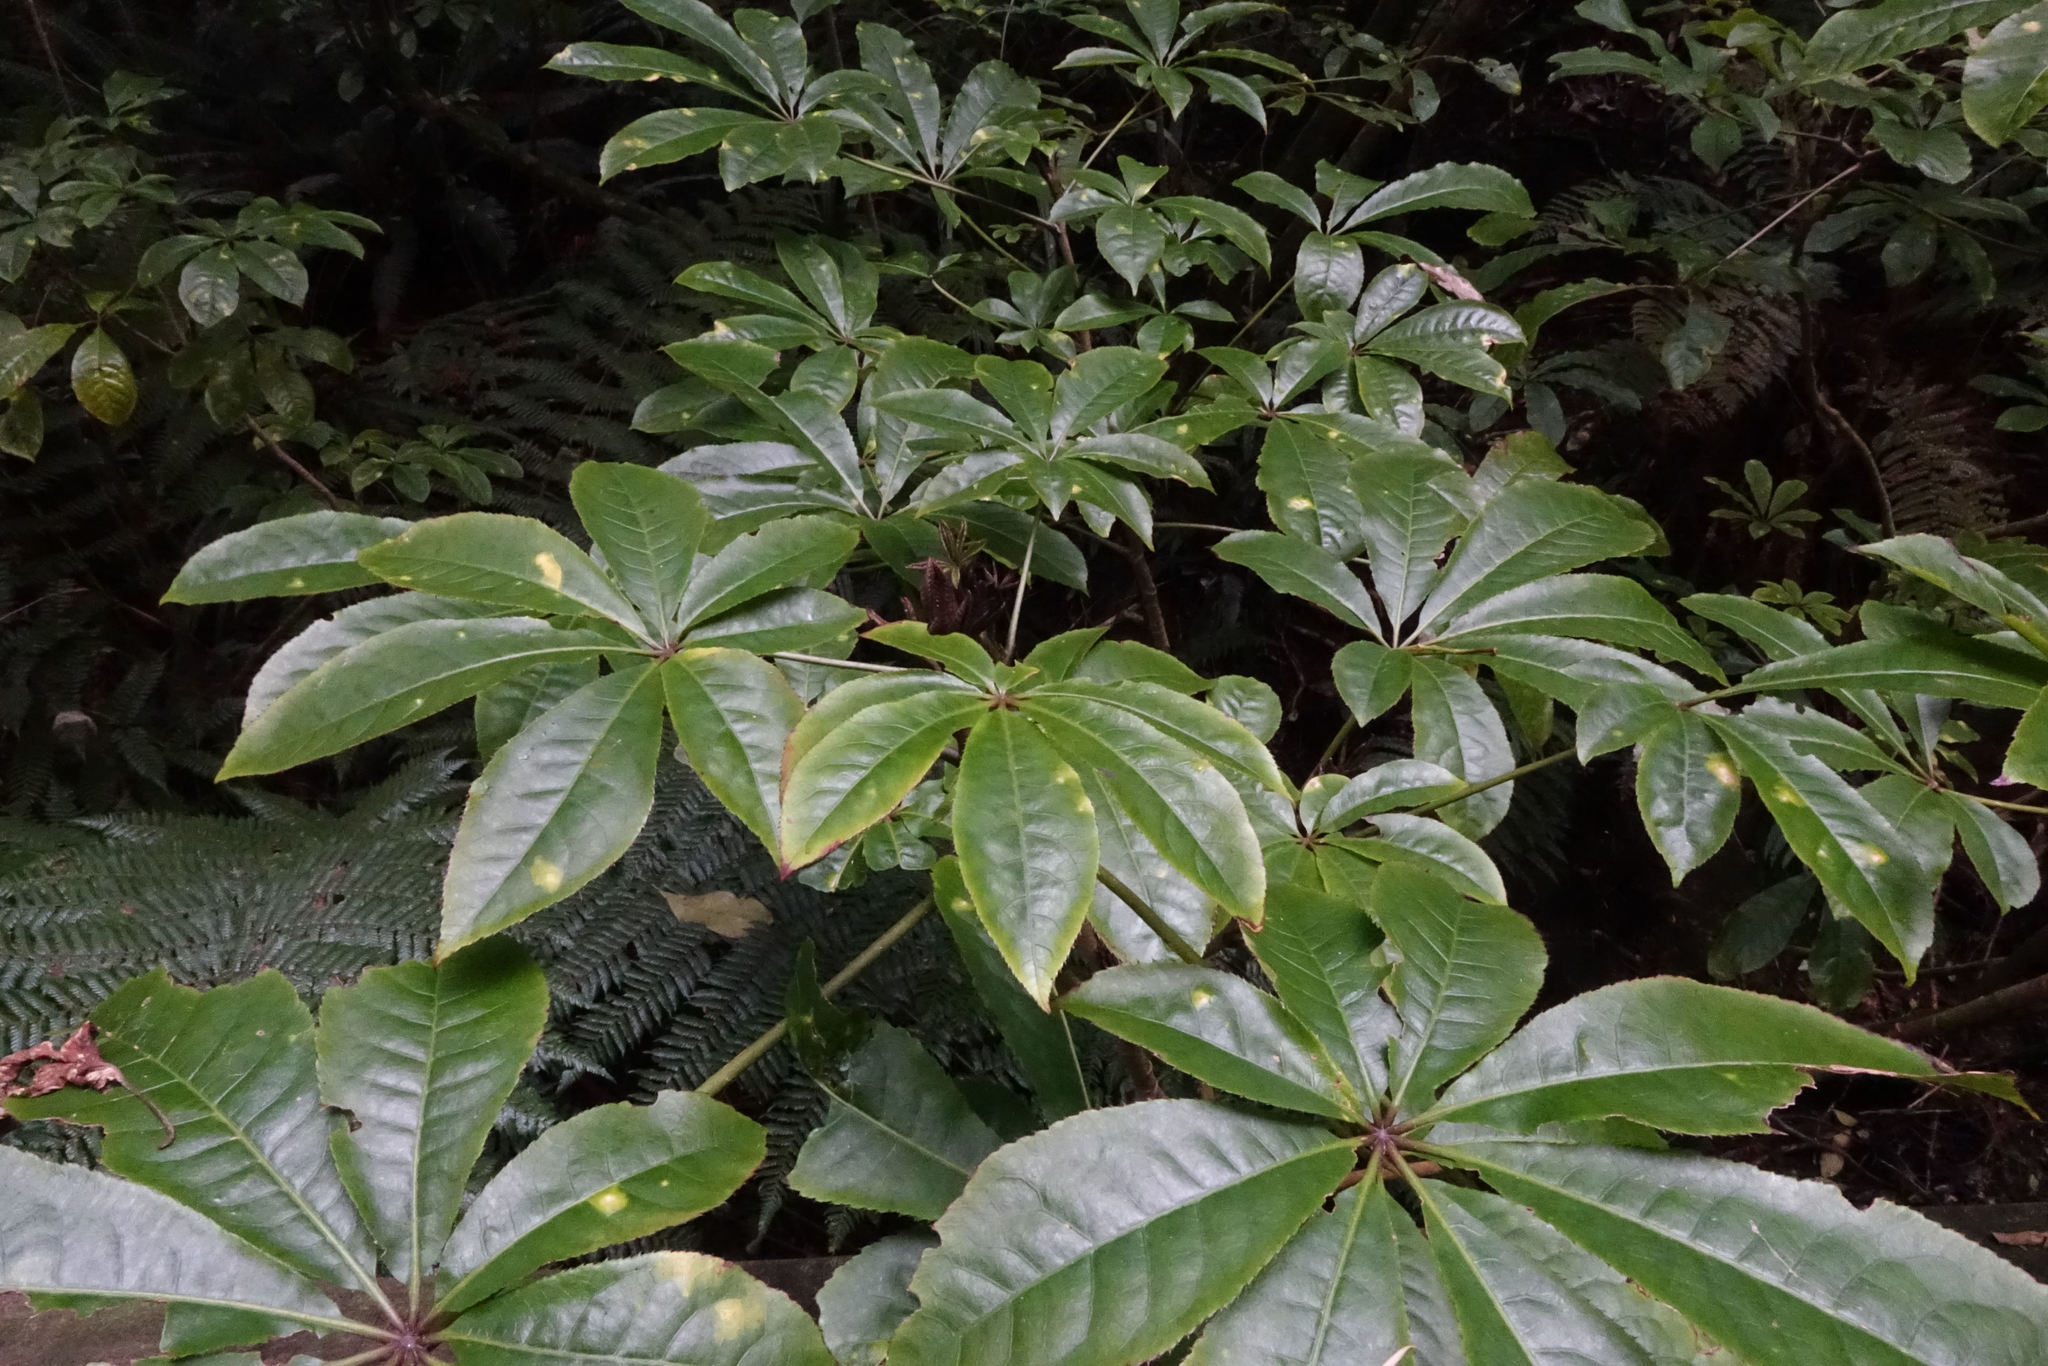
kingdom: Plantae
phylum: Tracheophyta
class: Magnoliopsida
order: Apiales
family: Araliaceae
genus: Schefflera
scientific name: Schefflera digitata
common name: Pate
